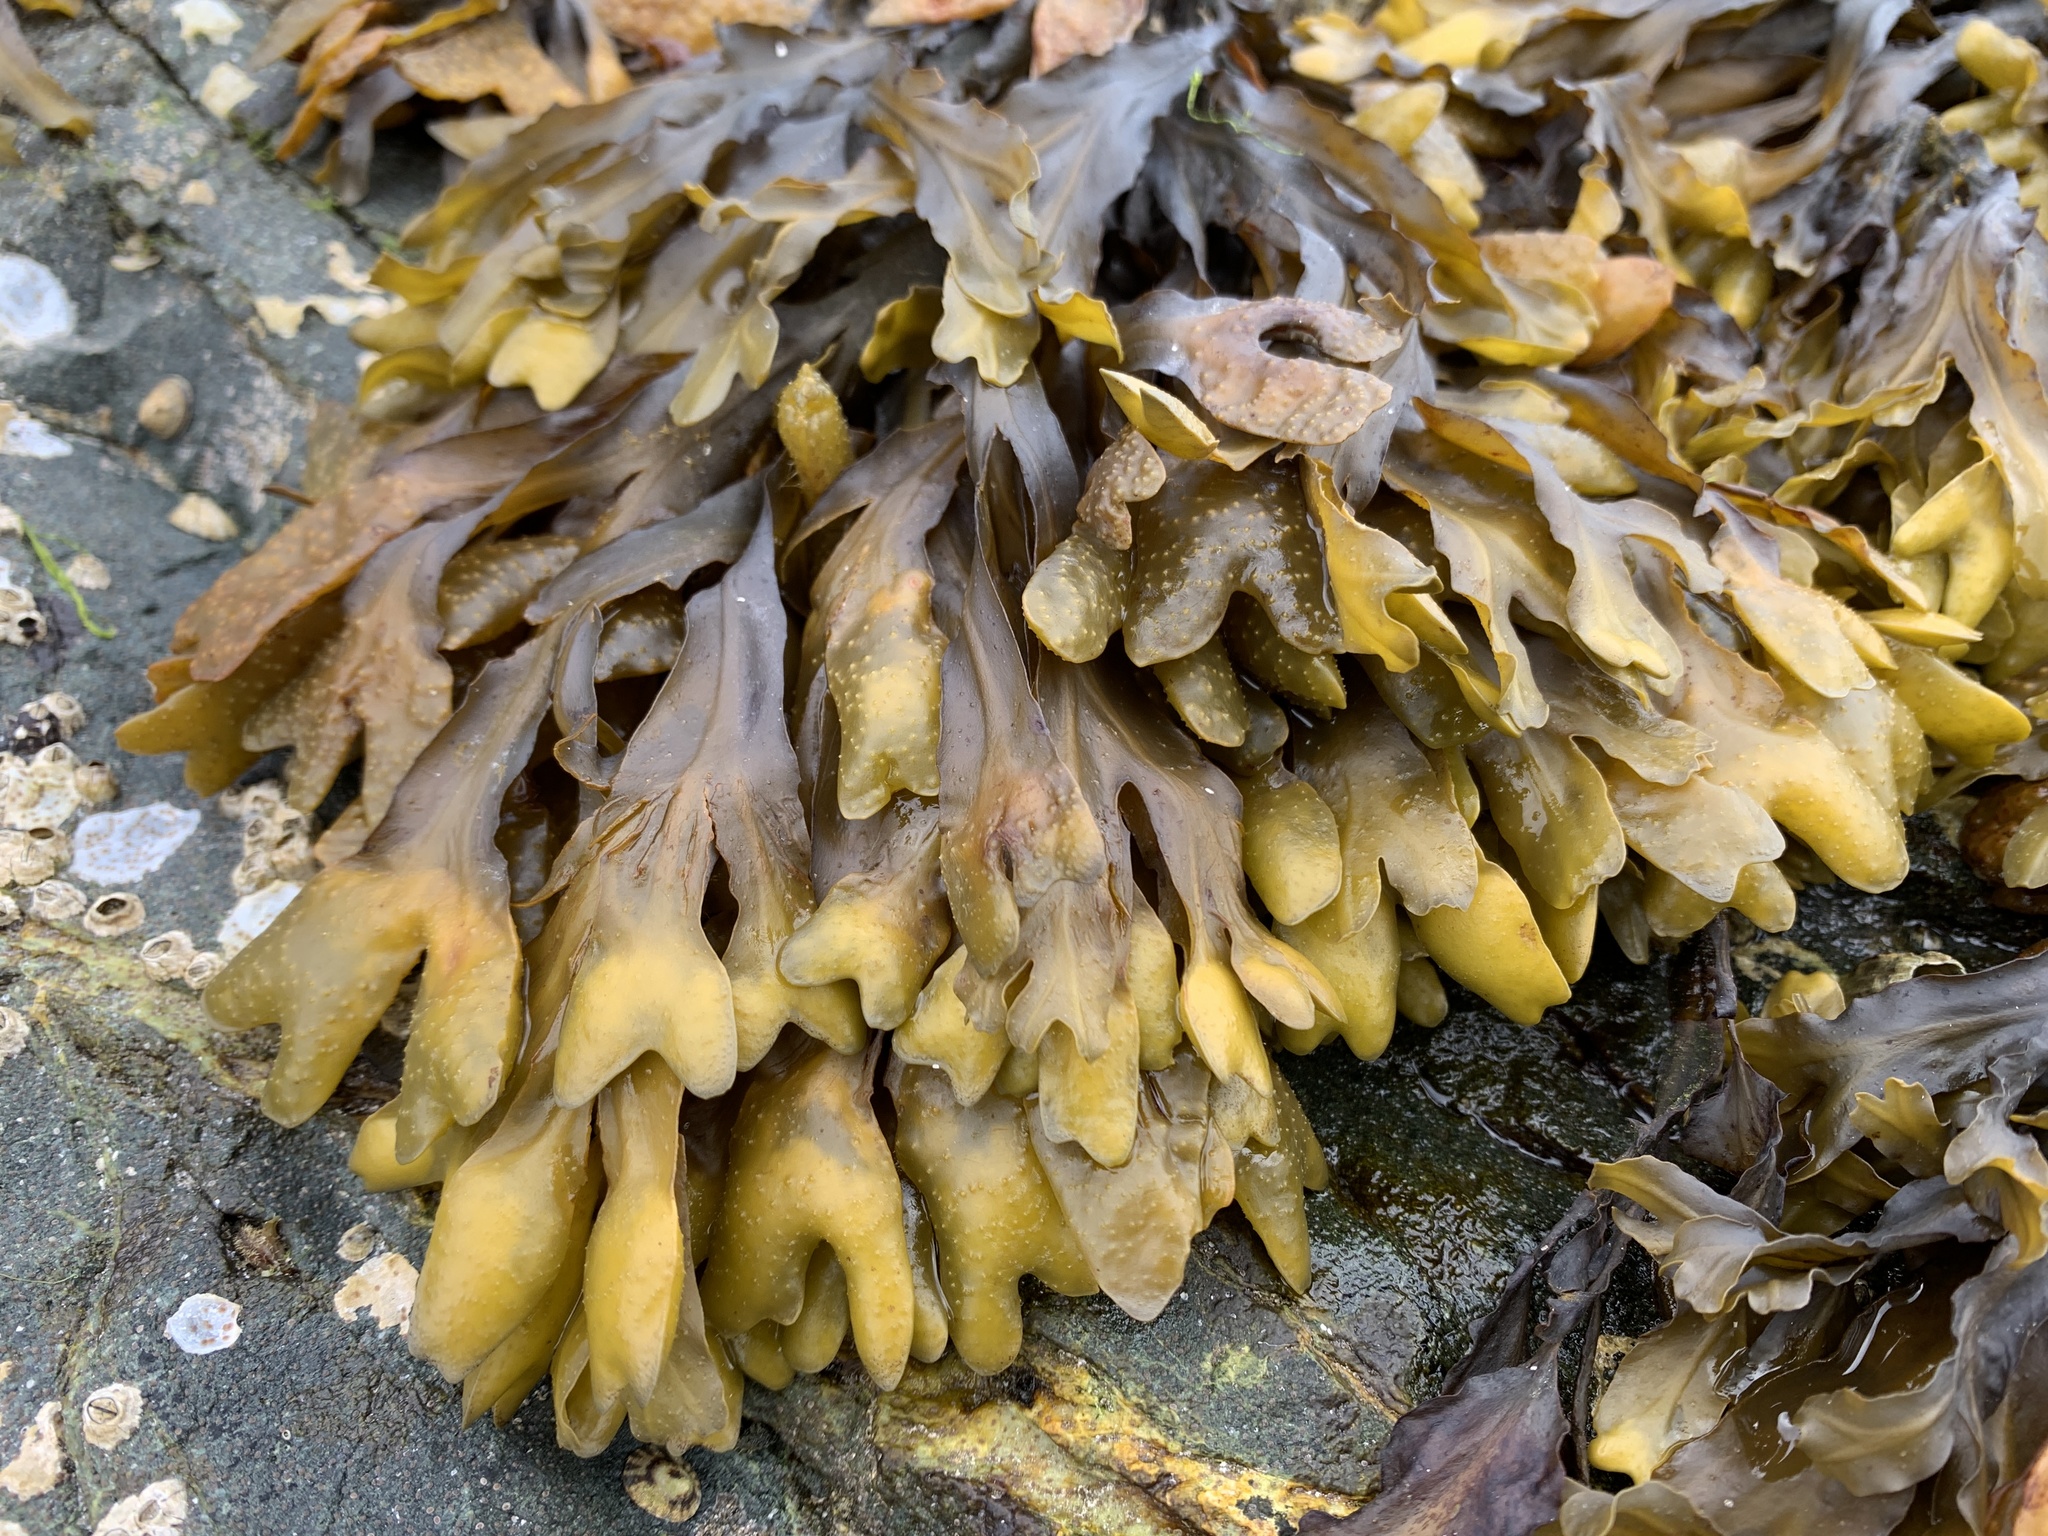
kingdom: Chromista
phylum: Ochrophyta
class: Phaeophyceae
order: Fucales
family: Fucaceae
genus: Fucus
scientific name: Fucus distichus
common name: Rockweed
